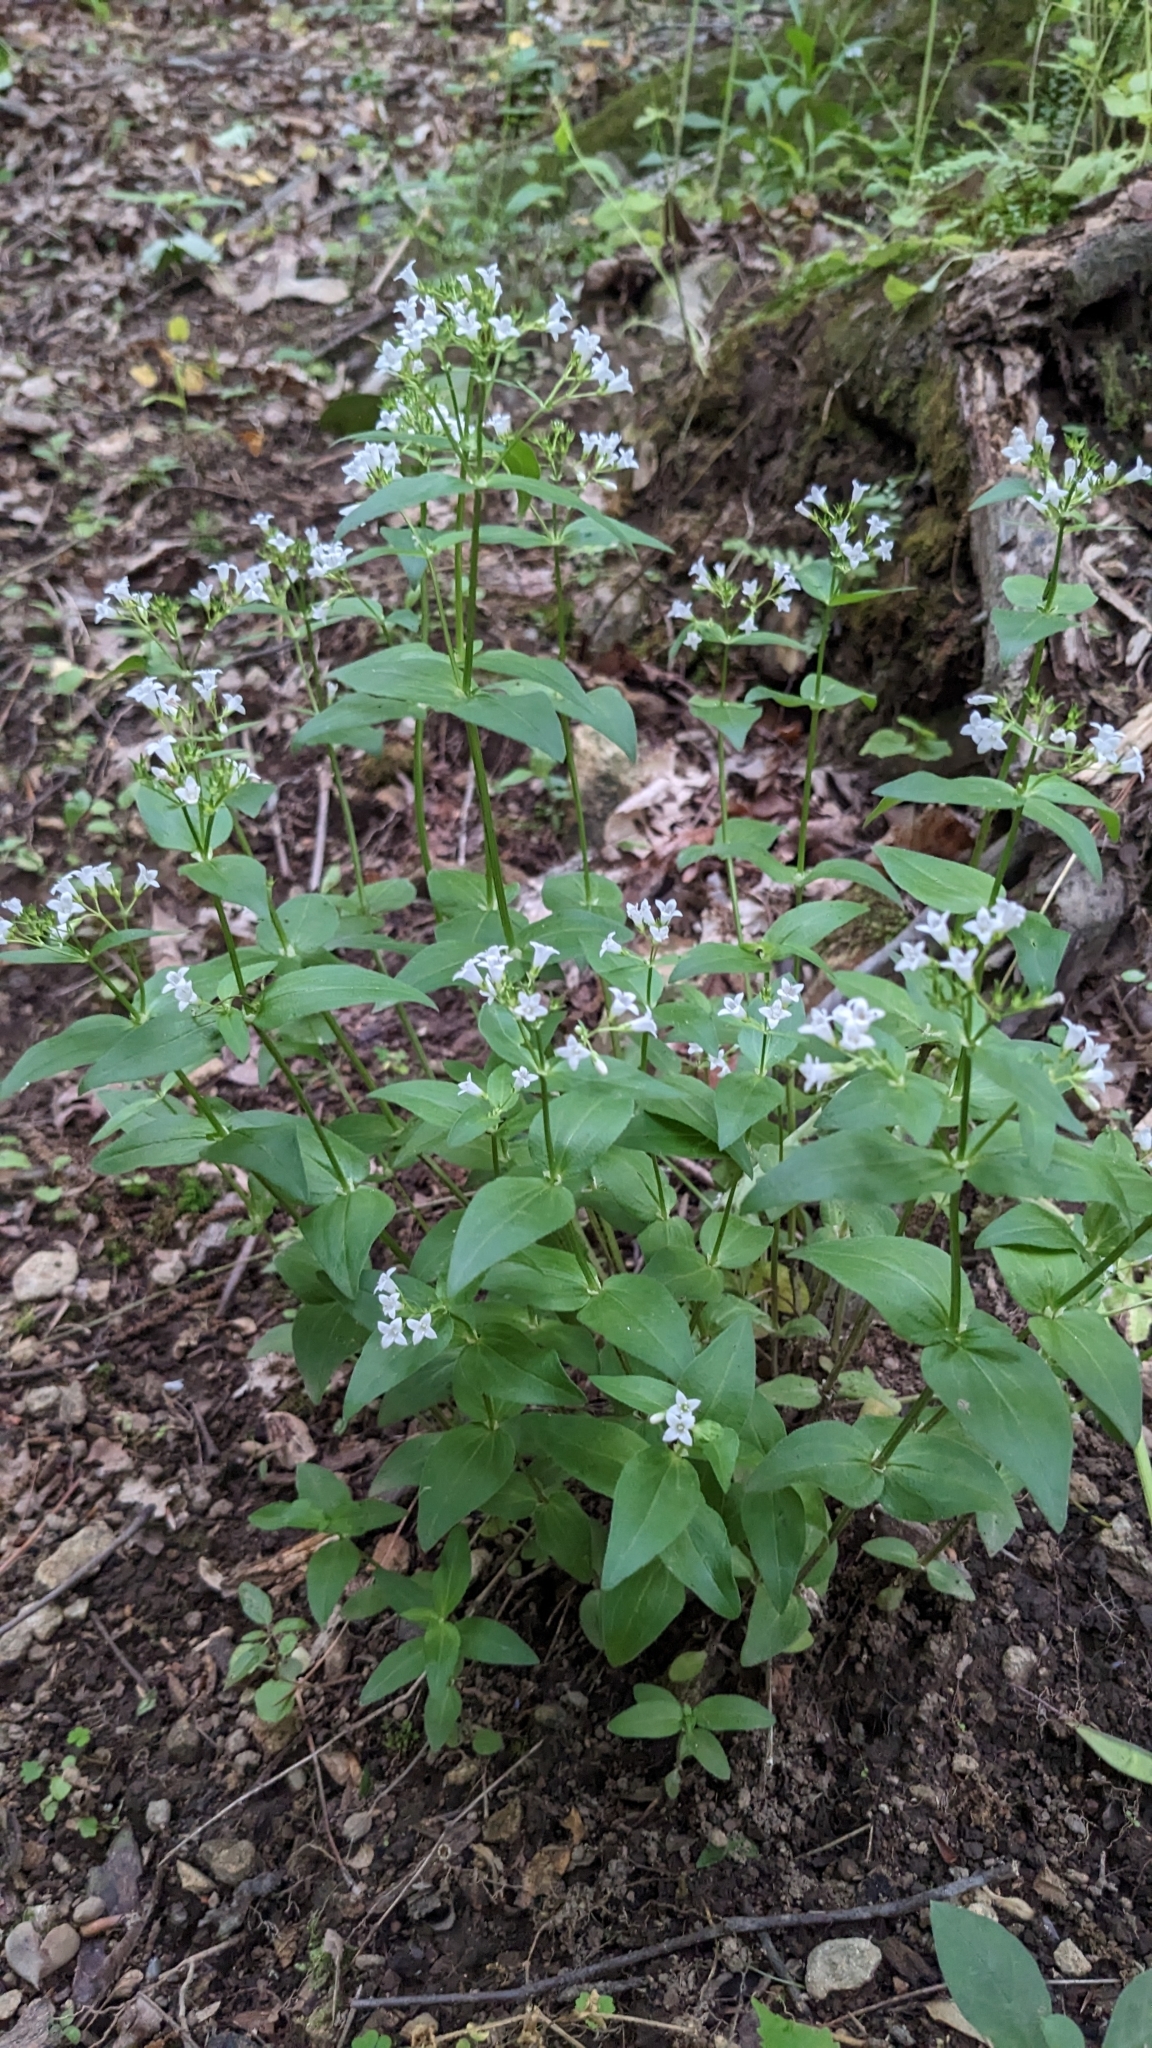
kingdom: Plantae
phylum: Tracheophyta
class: Magnoliopsida
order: Gentianales
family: Rubiaceae
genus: Houstonia
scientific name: Houstonia purpurea
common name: Summer bluet
